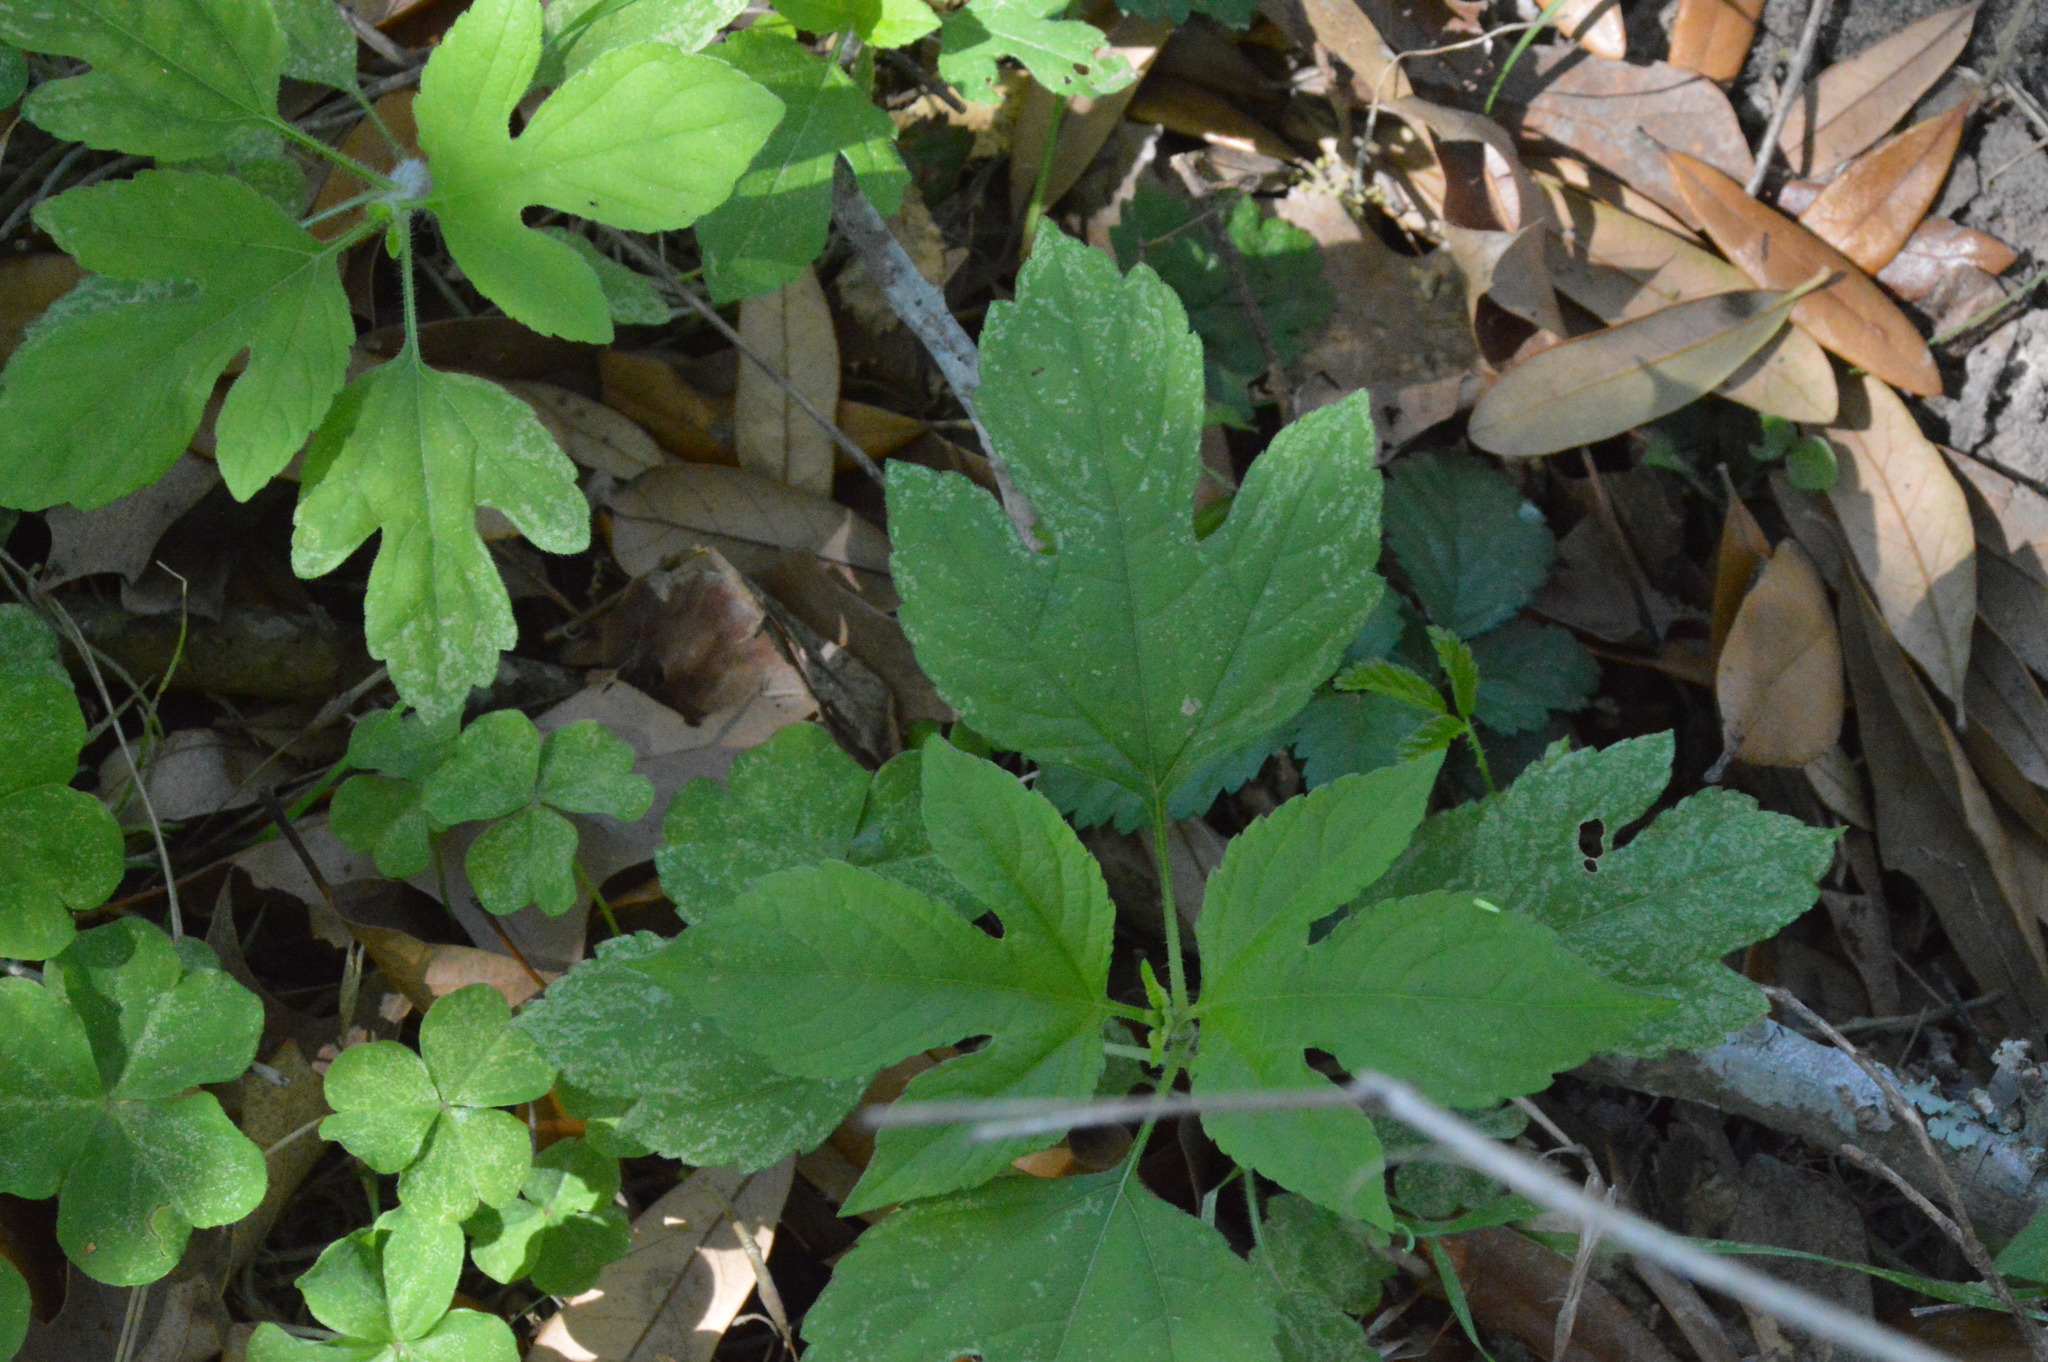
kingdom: Plantae
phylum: Tracheophyta
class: Magnoliopsida
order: Asterales
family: Asteraceae
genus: Ambrosia
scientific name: Ambrosia trifida
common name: Giant ragweed
